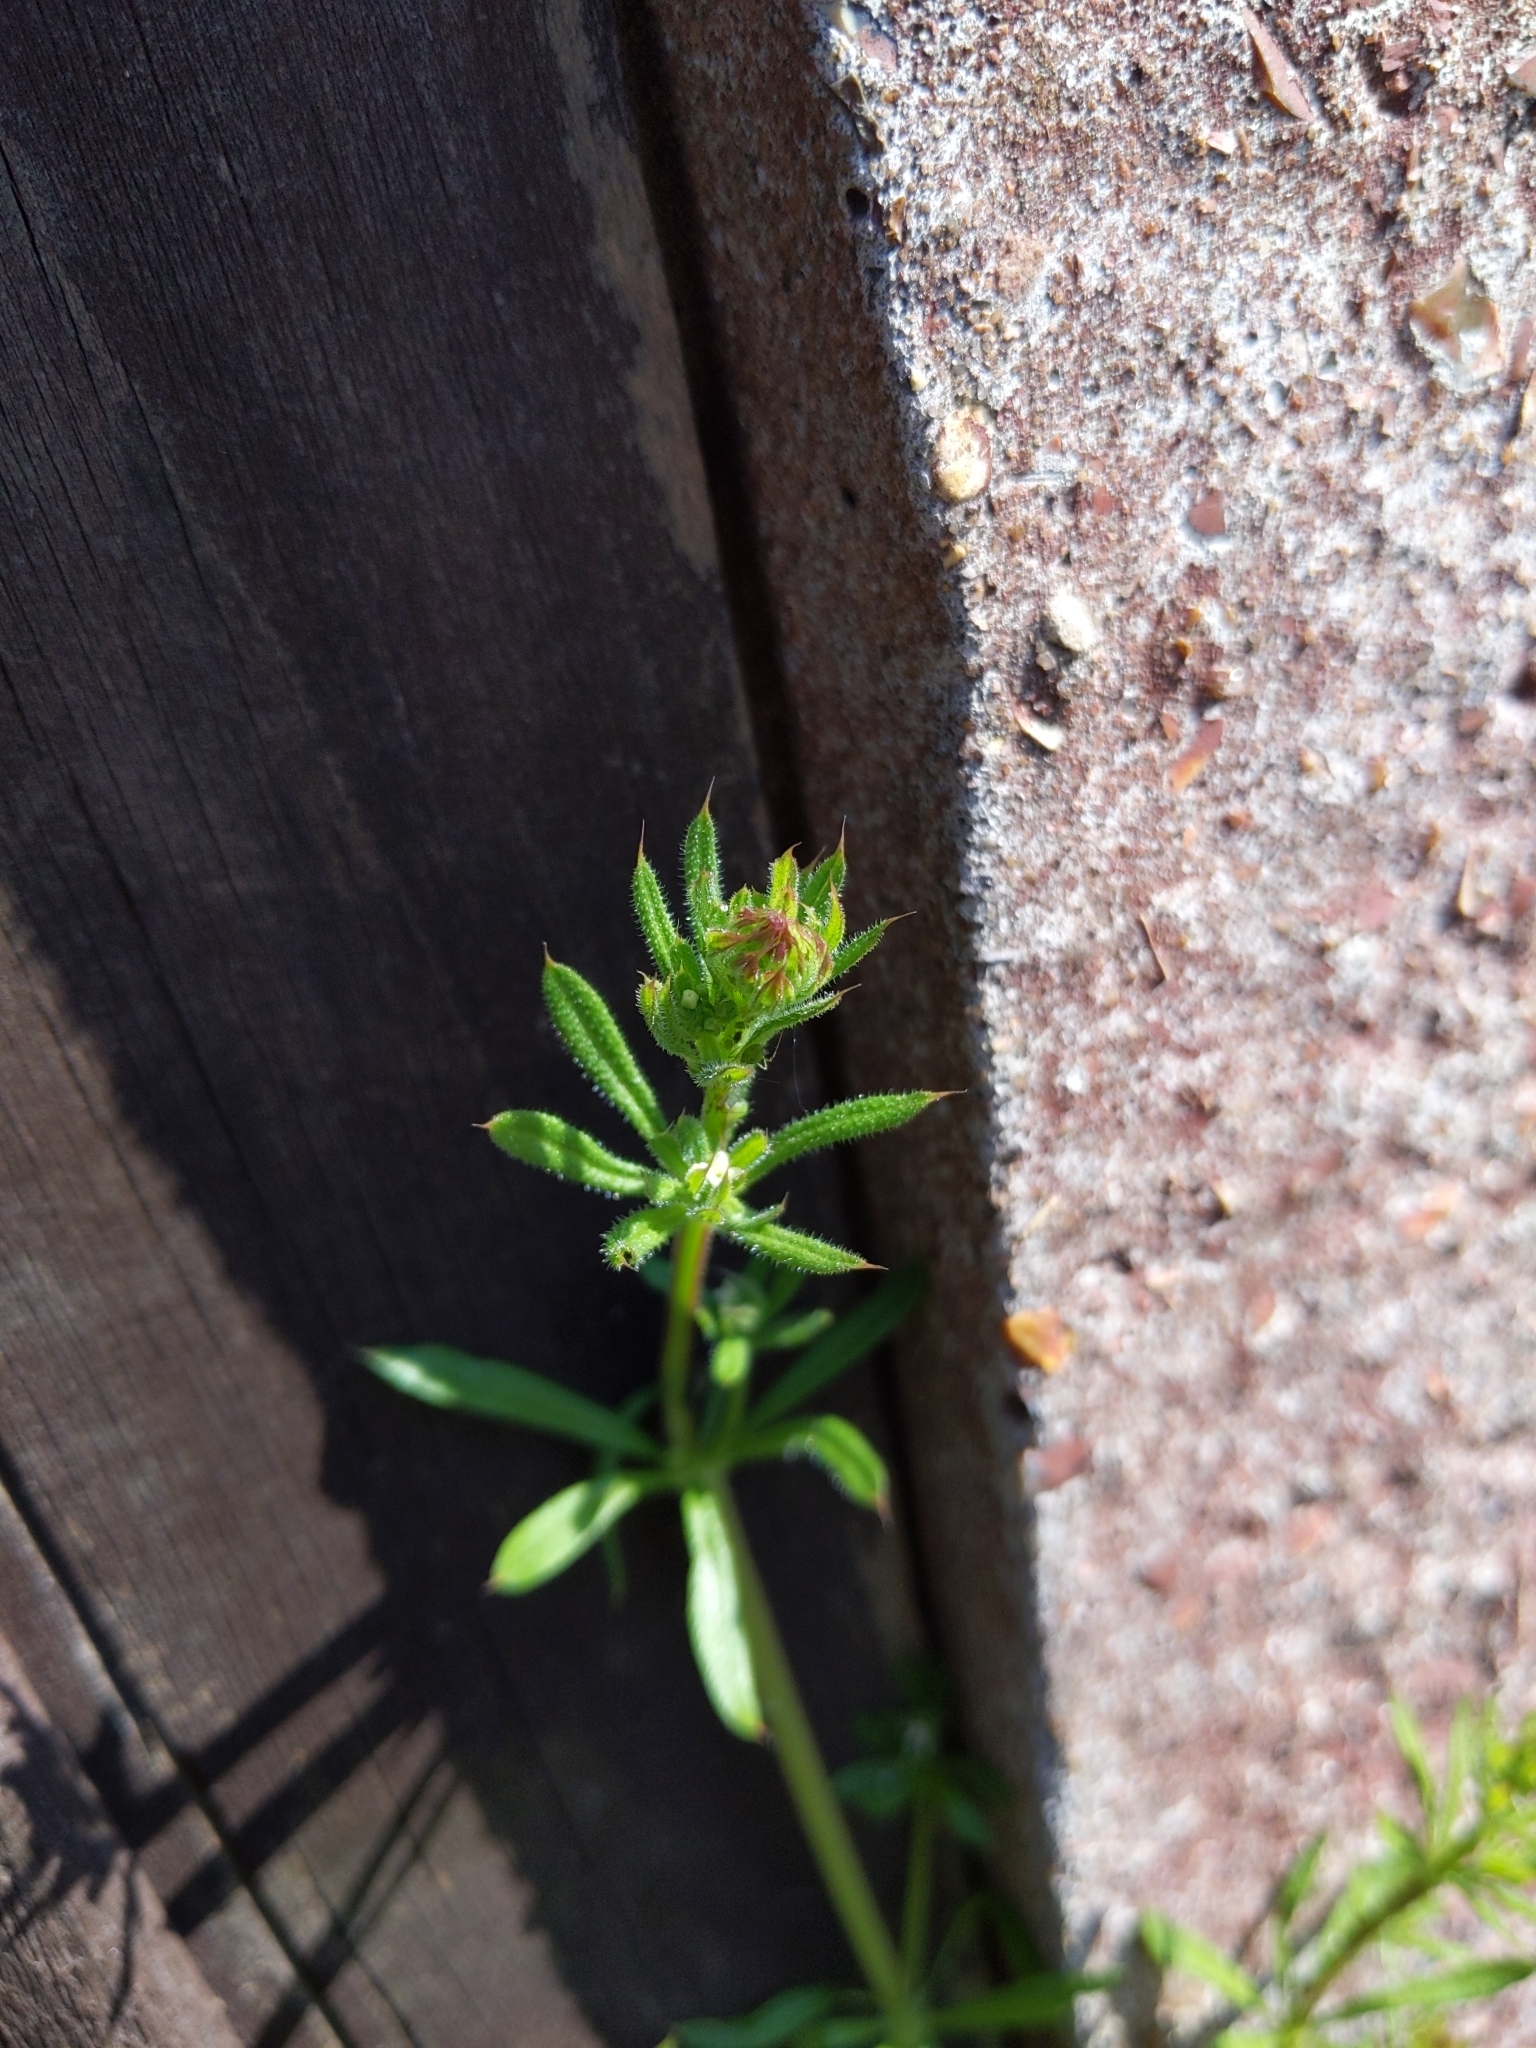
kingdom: Plantae
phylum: Tracheophyta
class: Magnoliopsida
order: Gentianales
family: Rubiaceae
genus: Galium
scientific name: Galium aparine
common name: Cleavers
